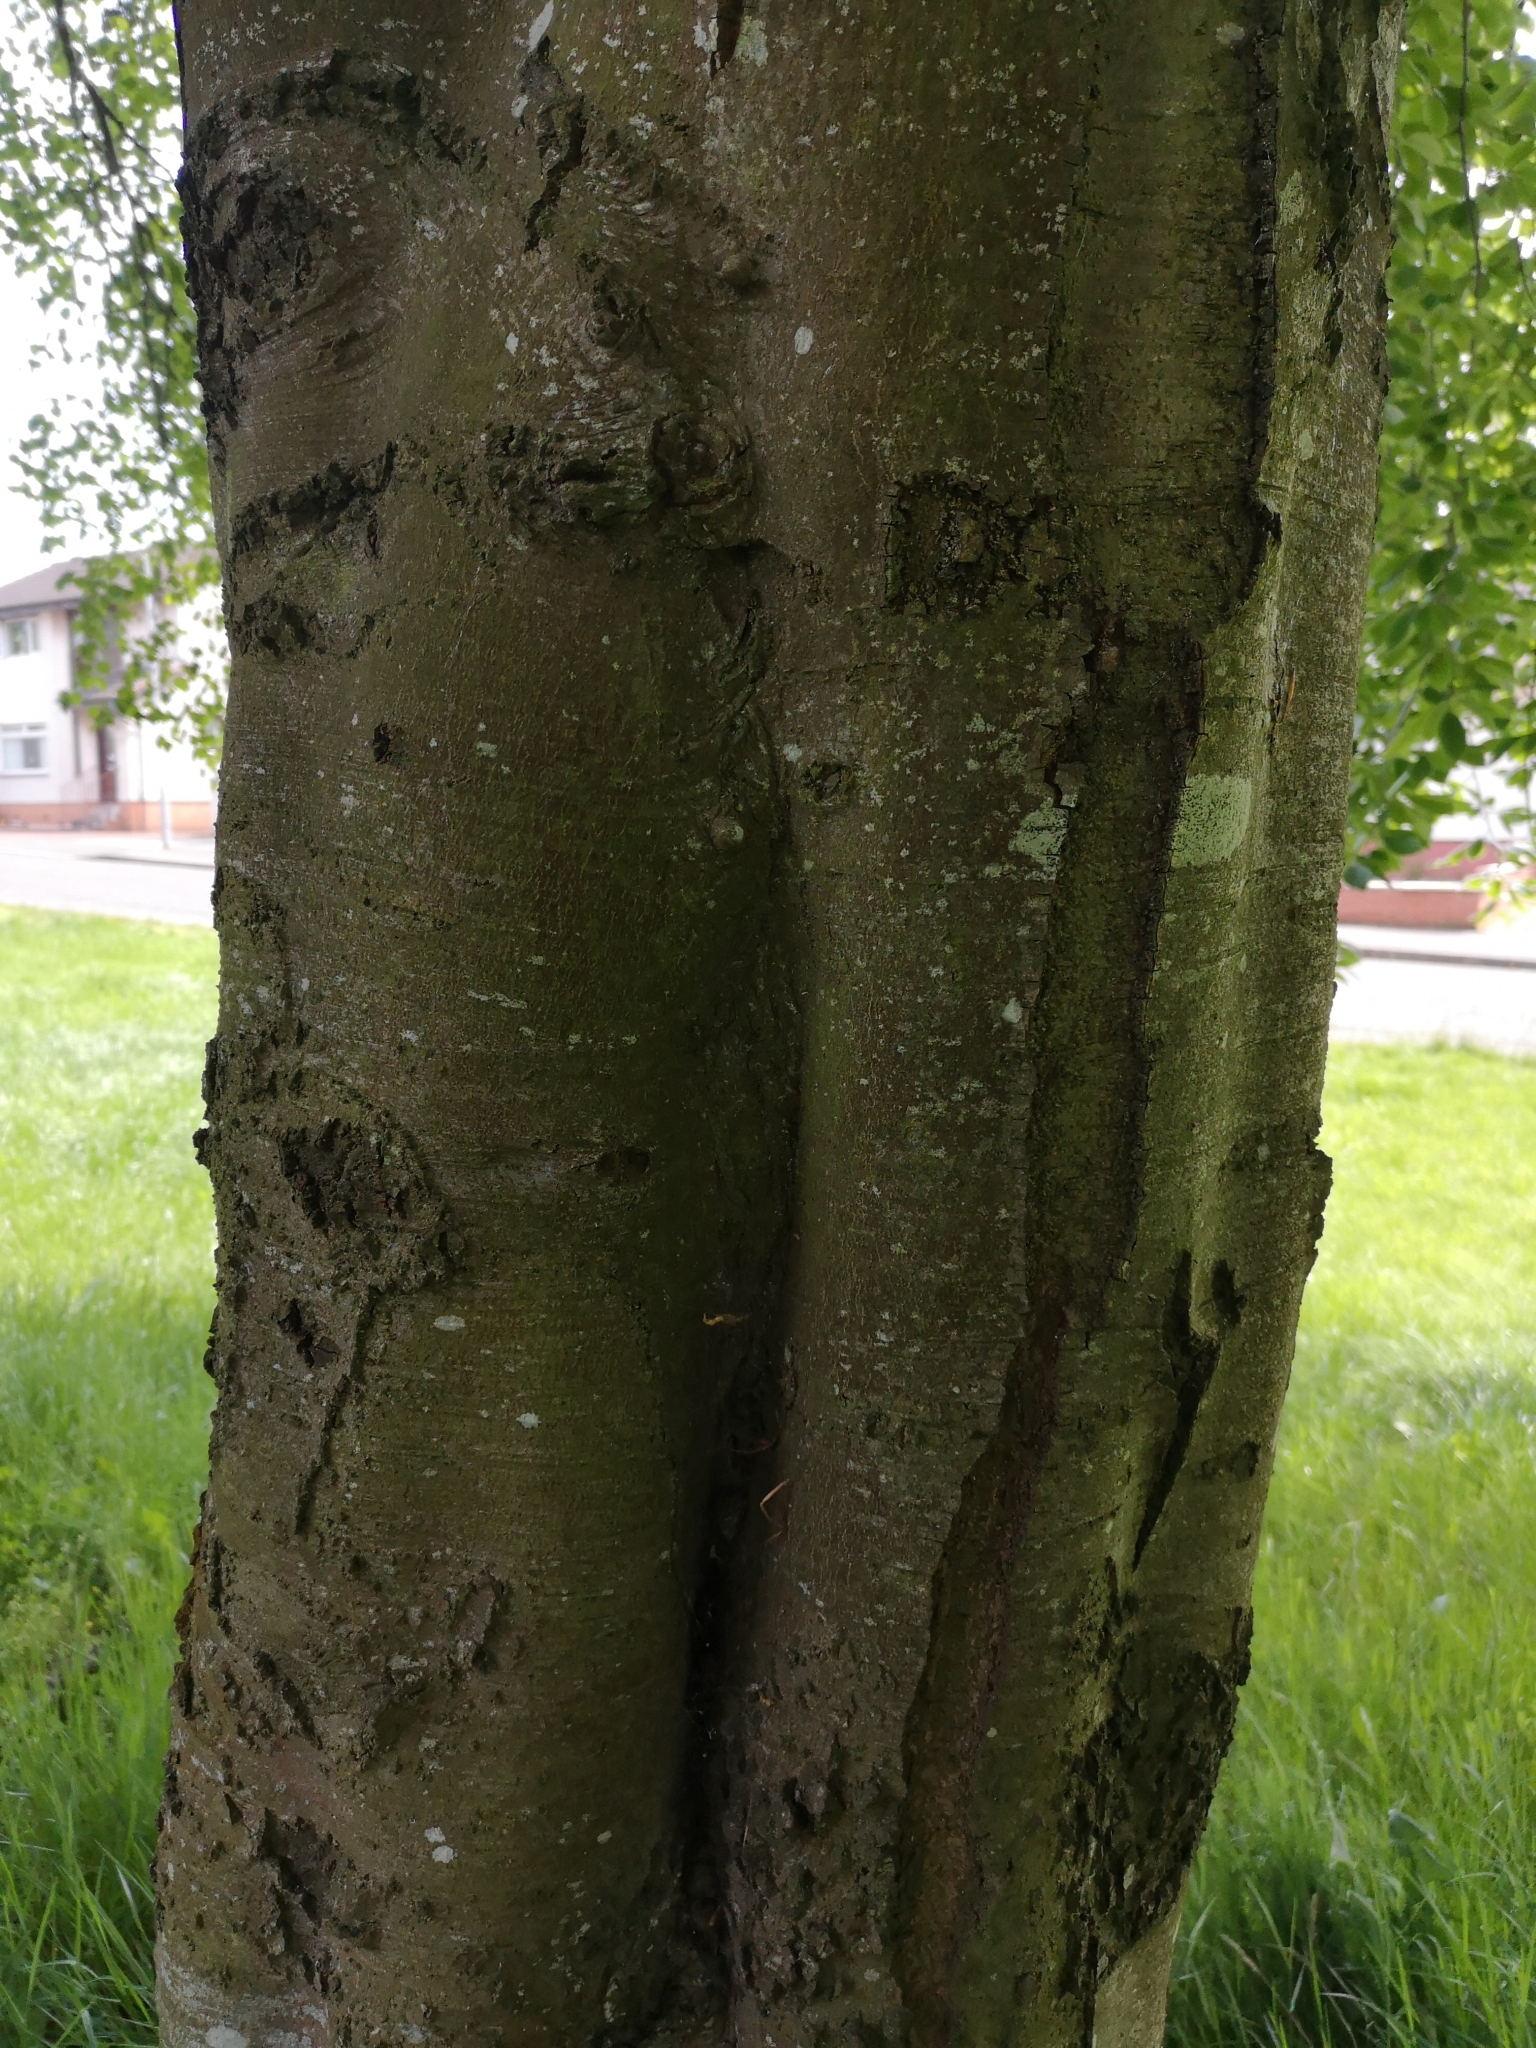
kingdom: Plantae
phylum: Tracheophyta
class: Magnoliopsida
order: Fagales
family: Fagaceae
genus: Fagus
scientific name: Fagus sylvatica
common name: Beech
